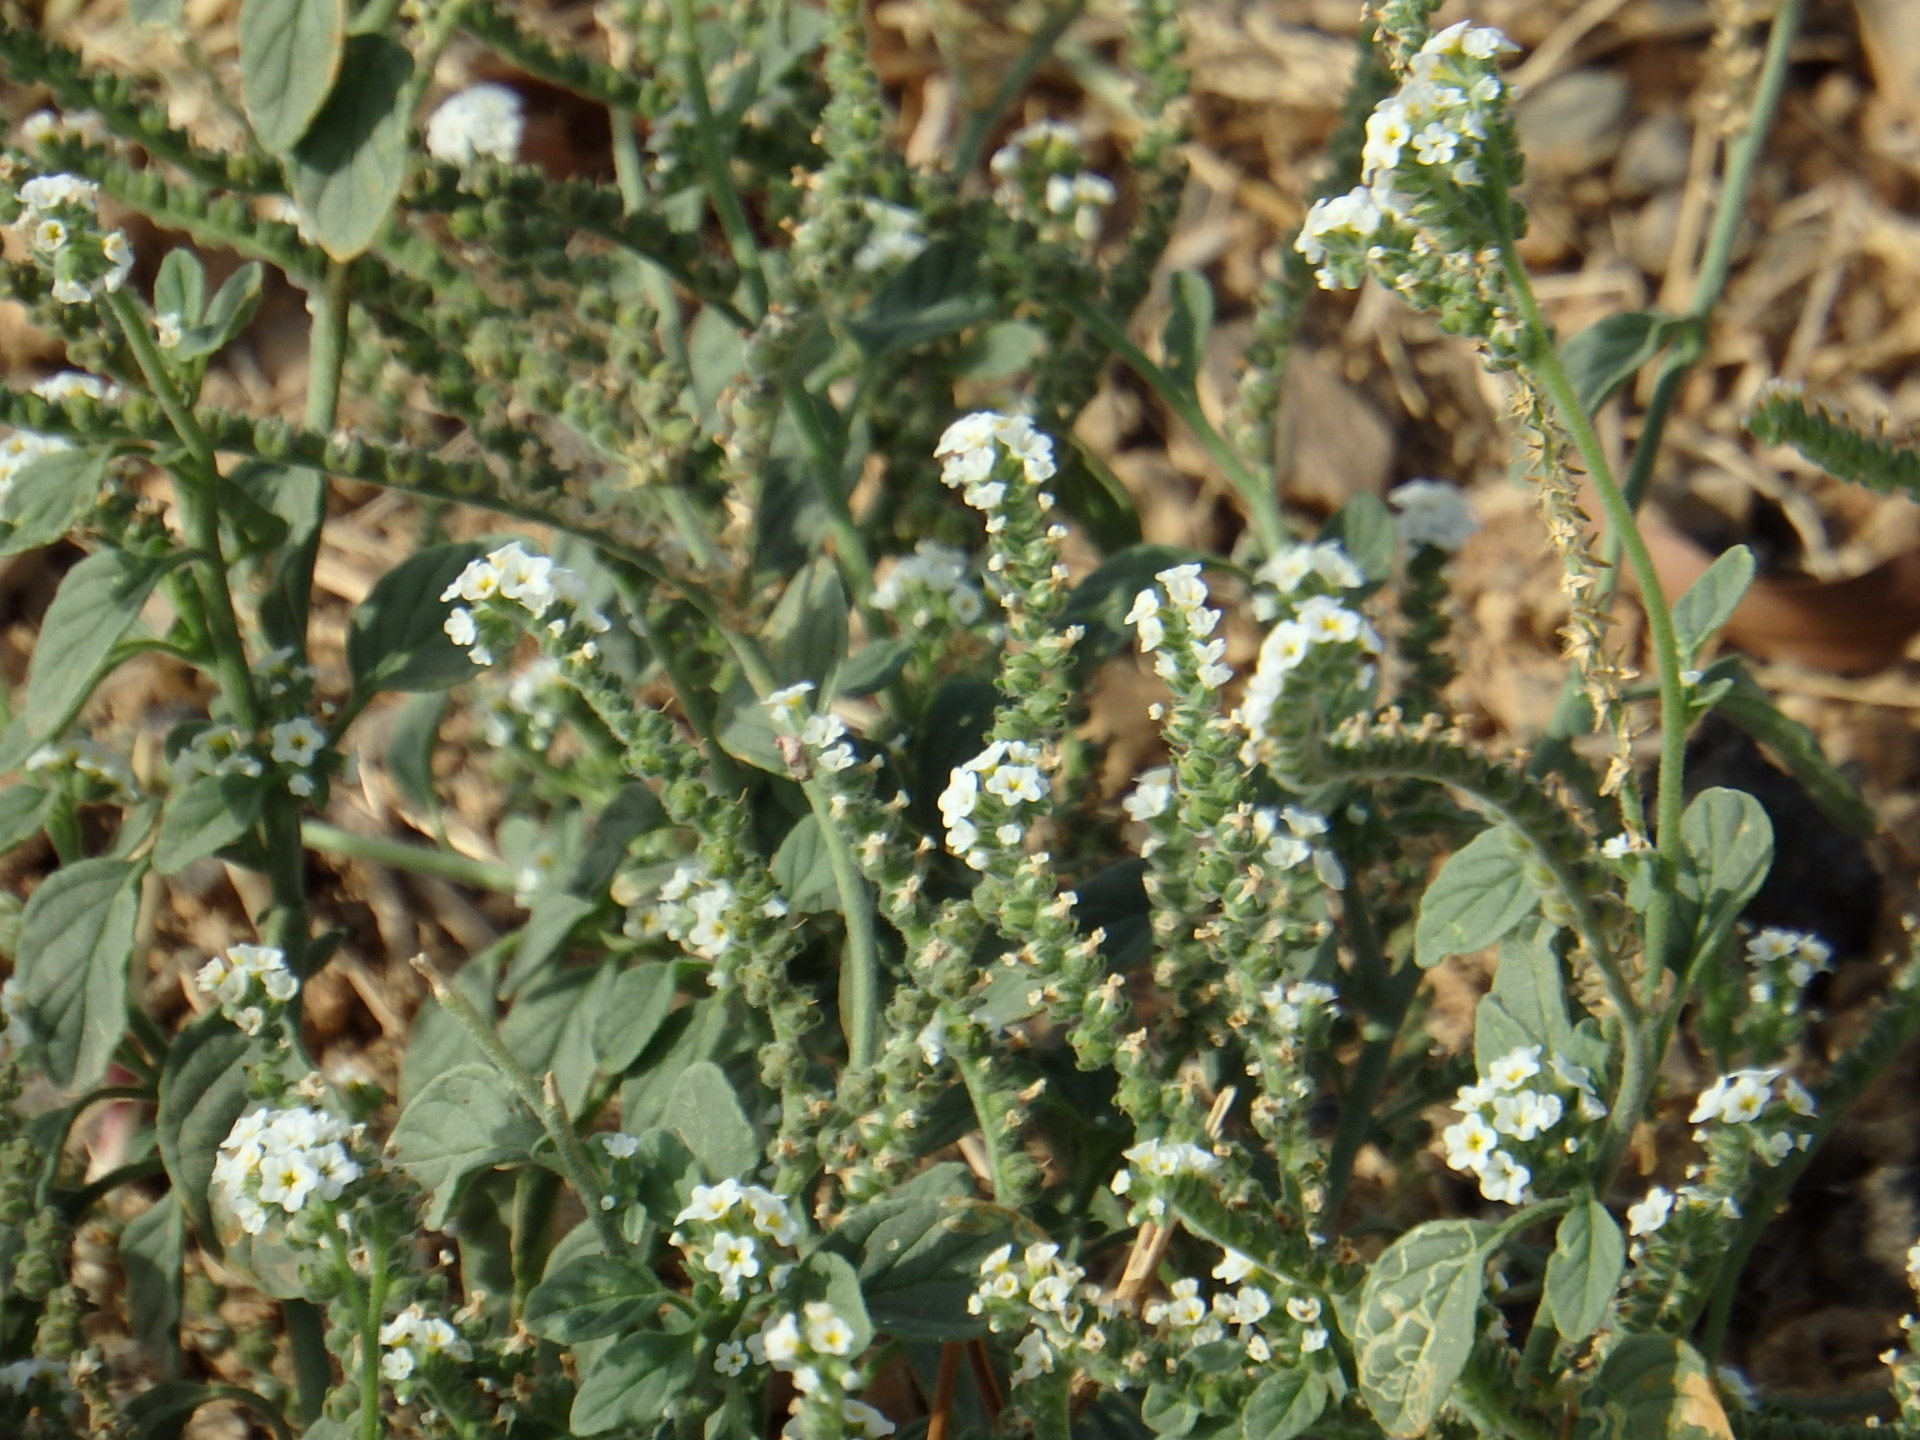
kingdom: Plantae
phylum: Tracheophyta
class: Magnoliopsida
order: Boraginales
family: Heliotropiaceae
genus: Heliotropium
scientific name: Heliotropium europaeum
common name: European heliotrope
